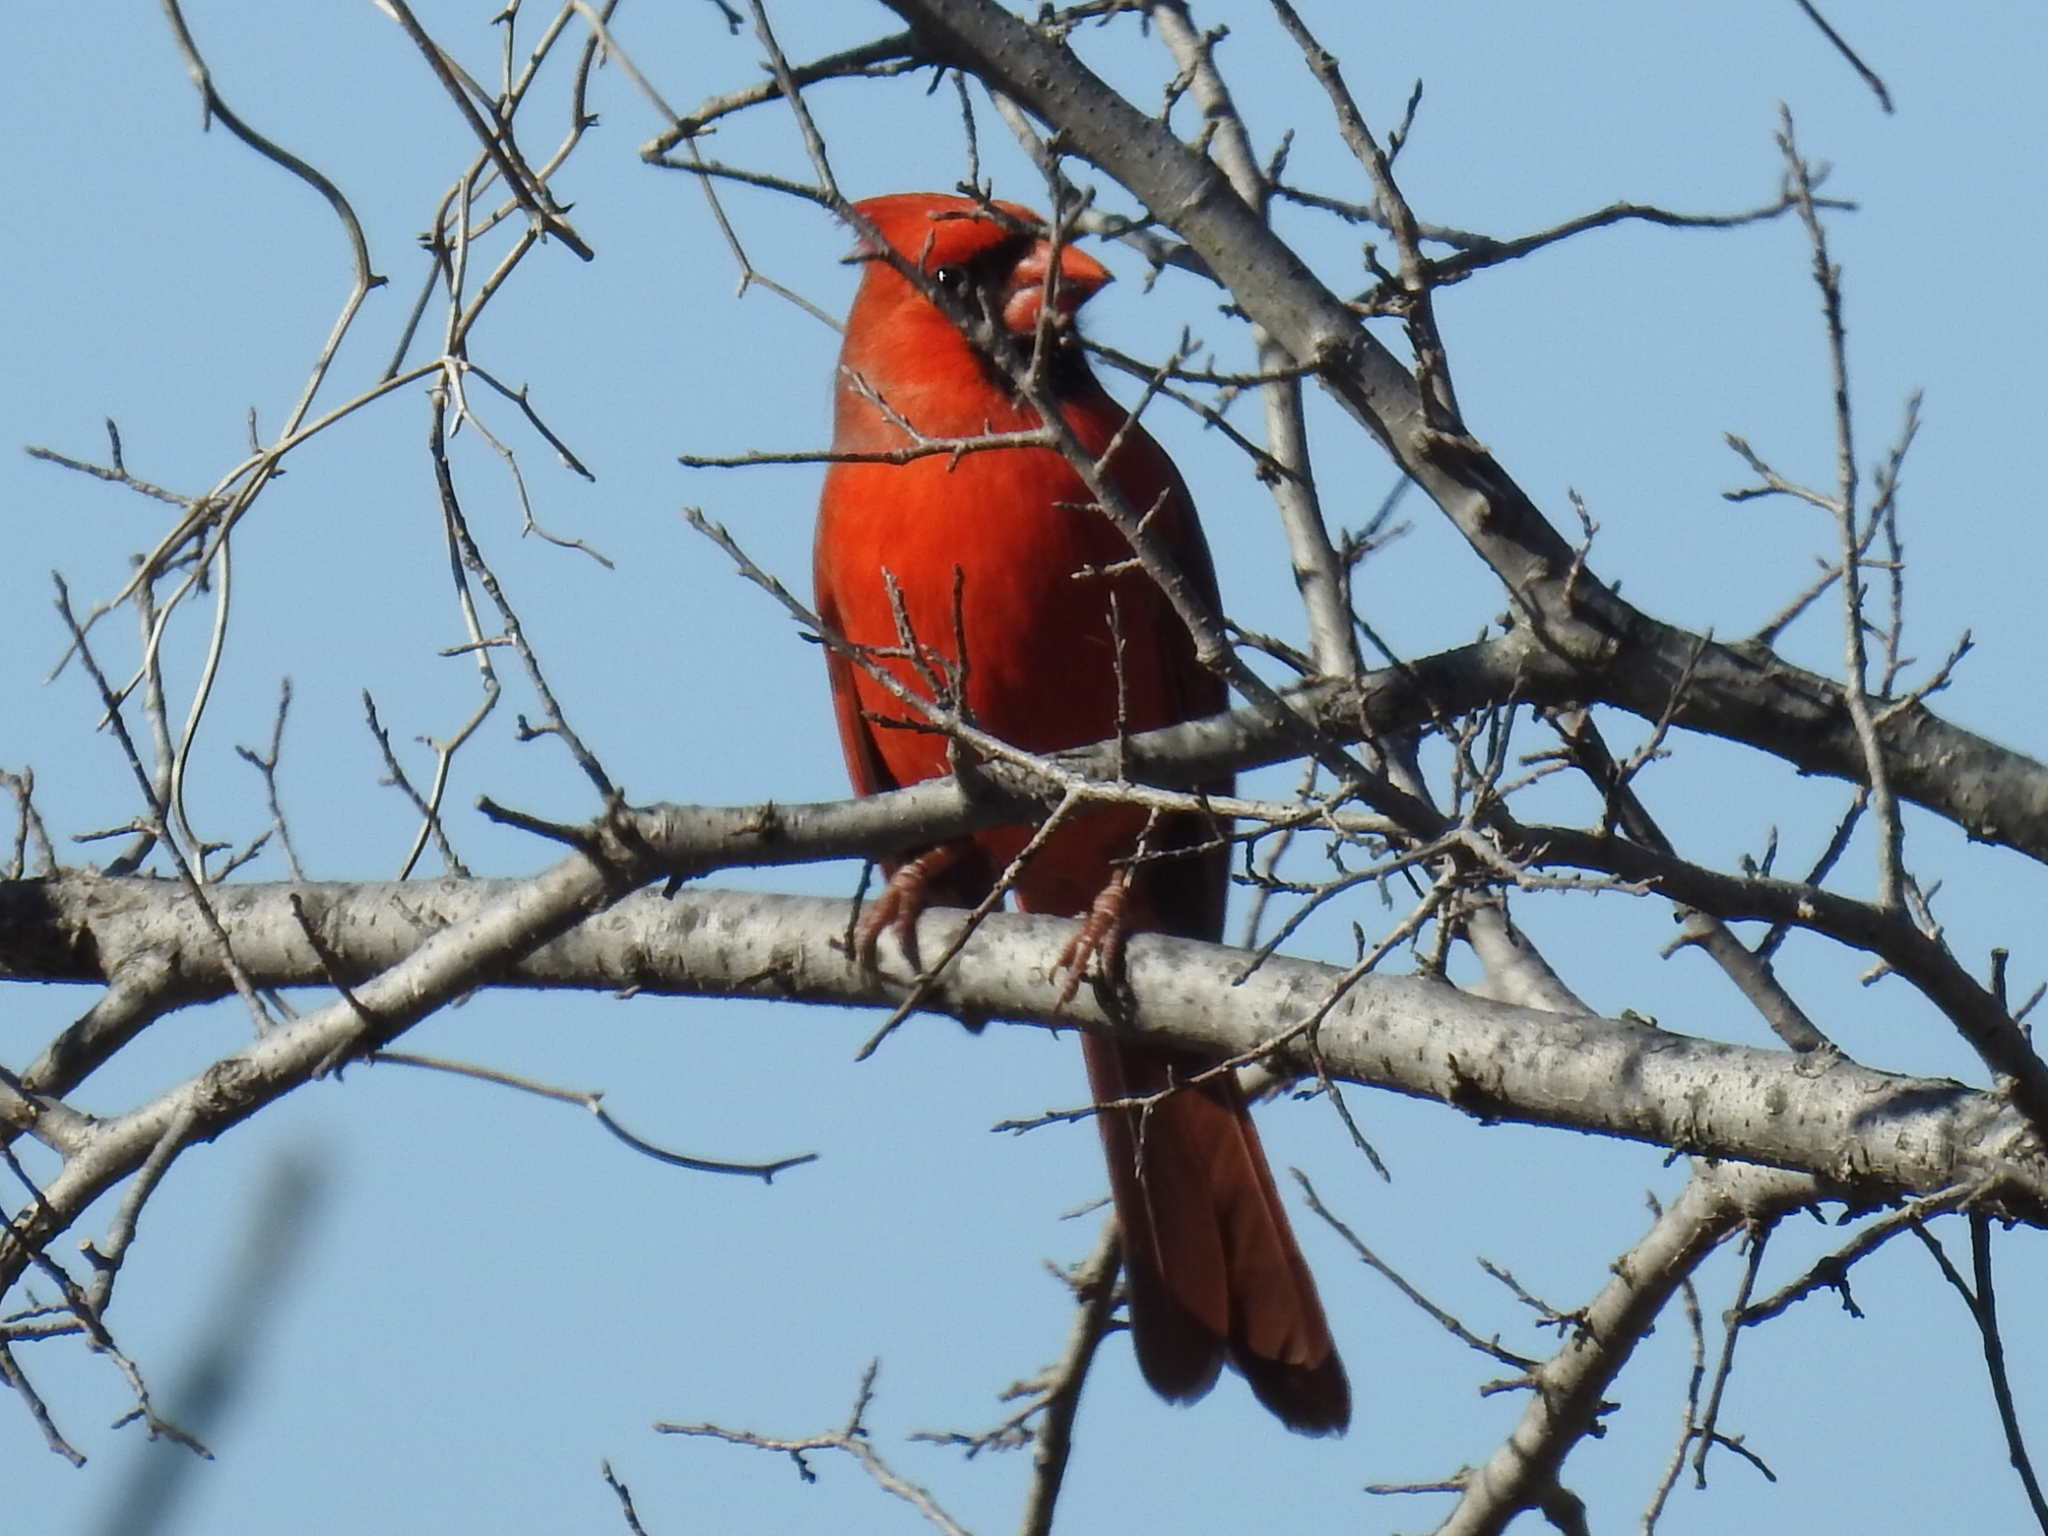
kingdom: Animalia
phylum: Chordata
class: Aves
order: Passeriformes
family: Cardinalidae
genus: Cardinalis
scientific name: Cardinalis cardinalis
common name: Northern cardinal
